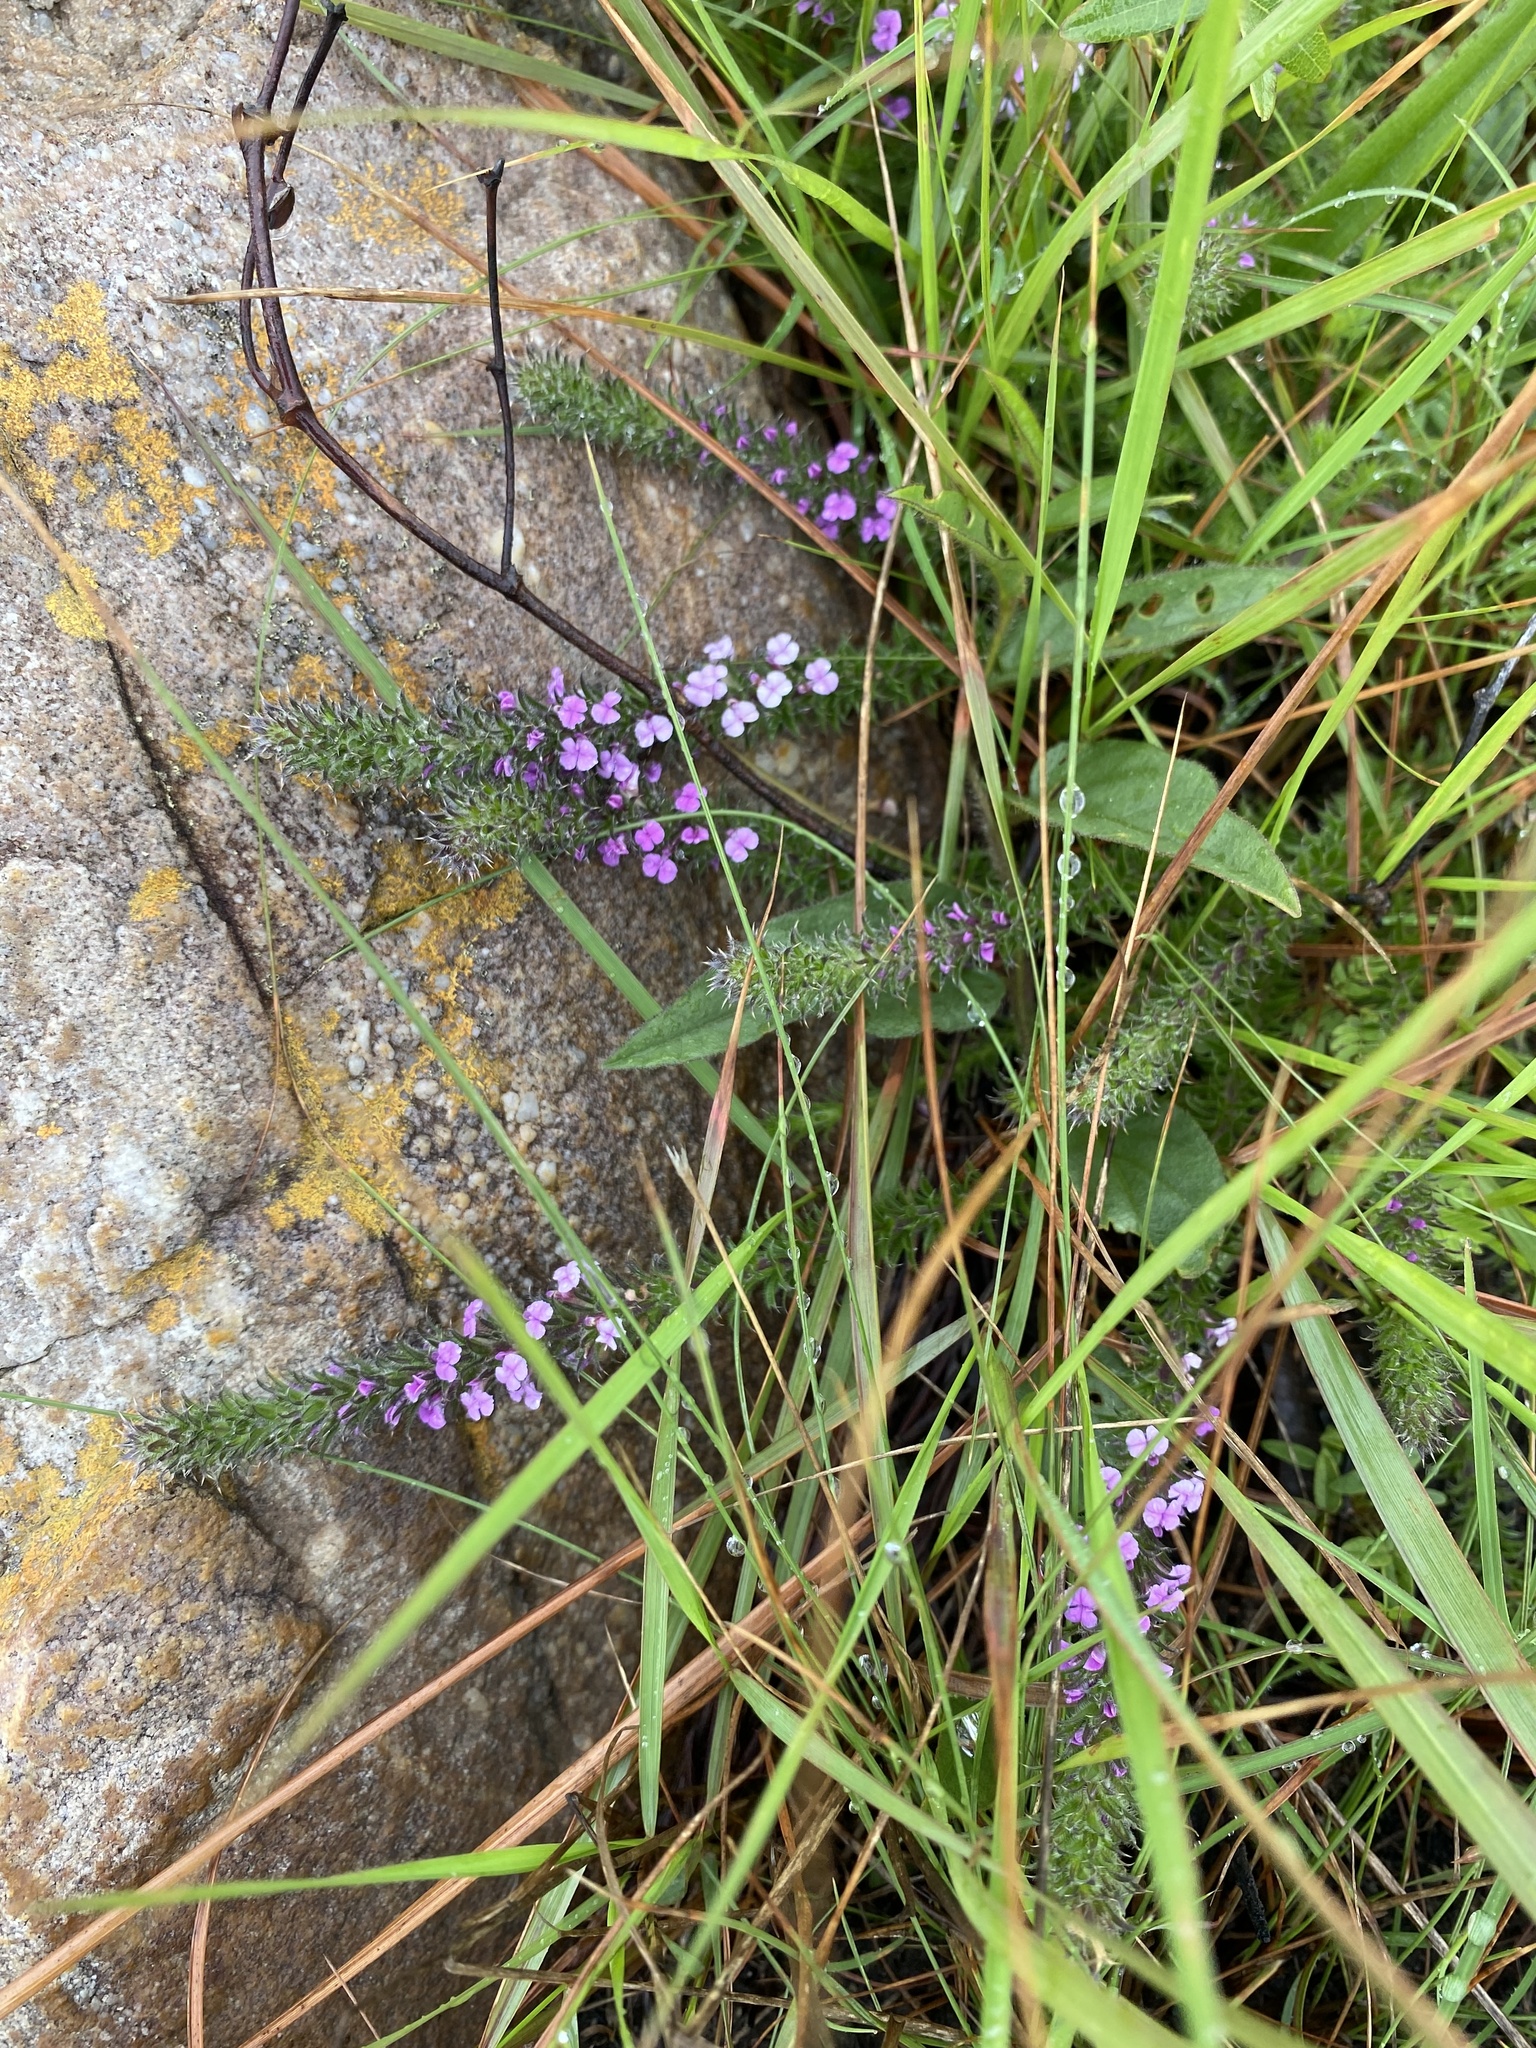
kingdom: Plantae
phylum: Tracheophyta
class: Magnoliopsida
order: Fabales
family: Polygalaceae
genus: Muraltia
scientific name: Muraltia lancifolia
